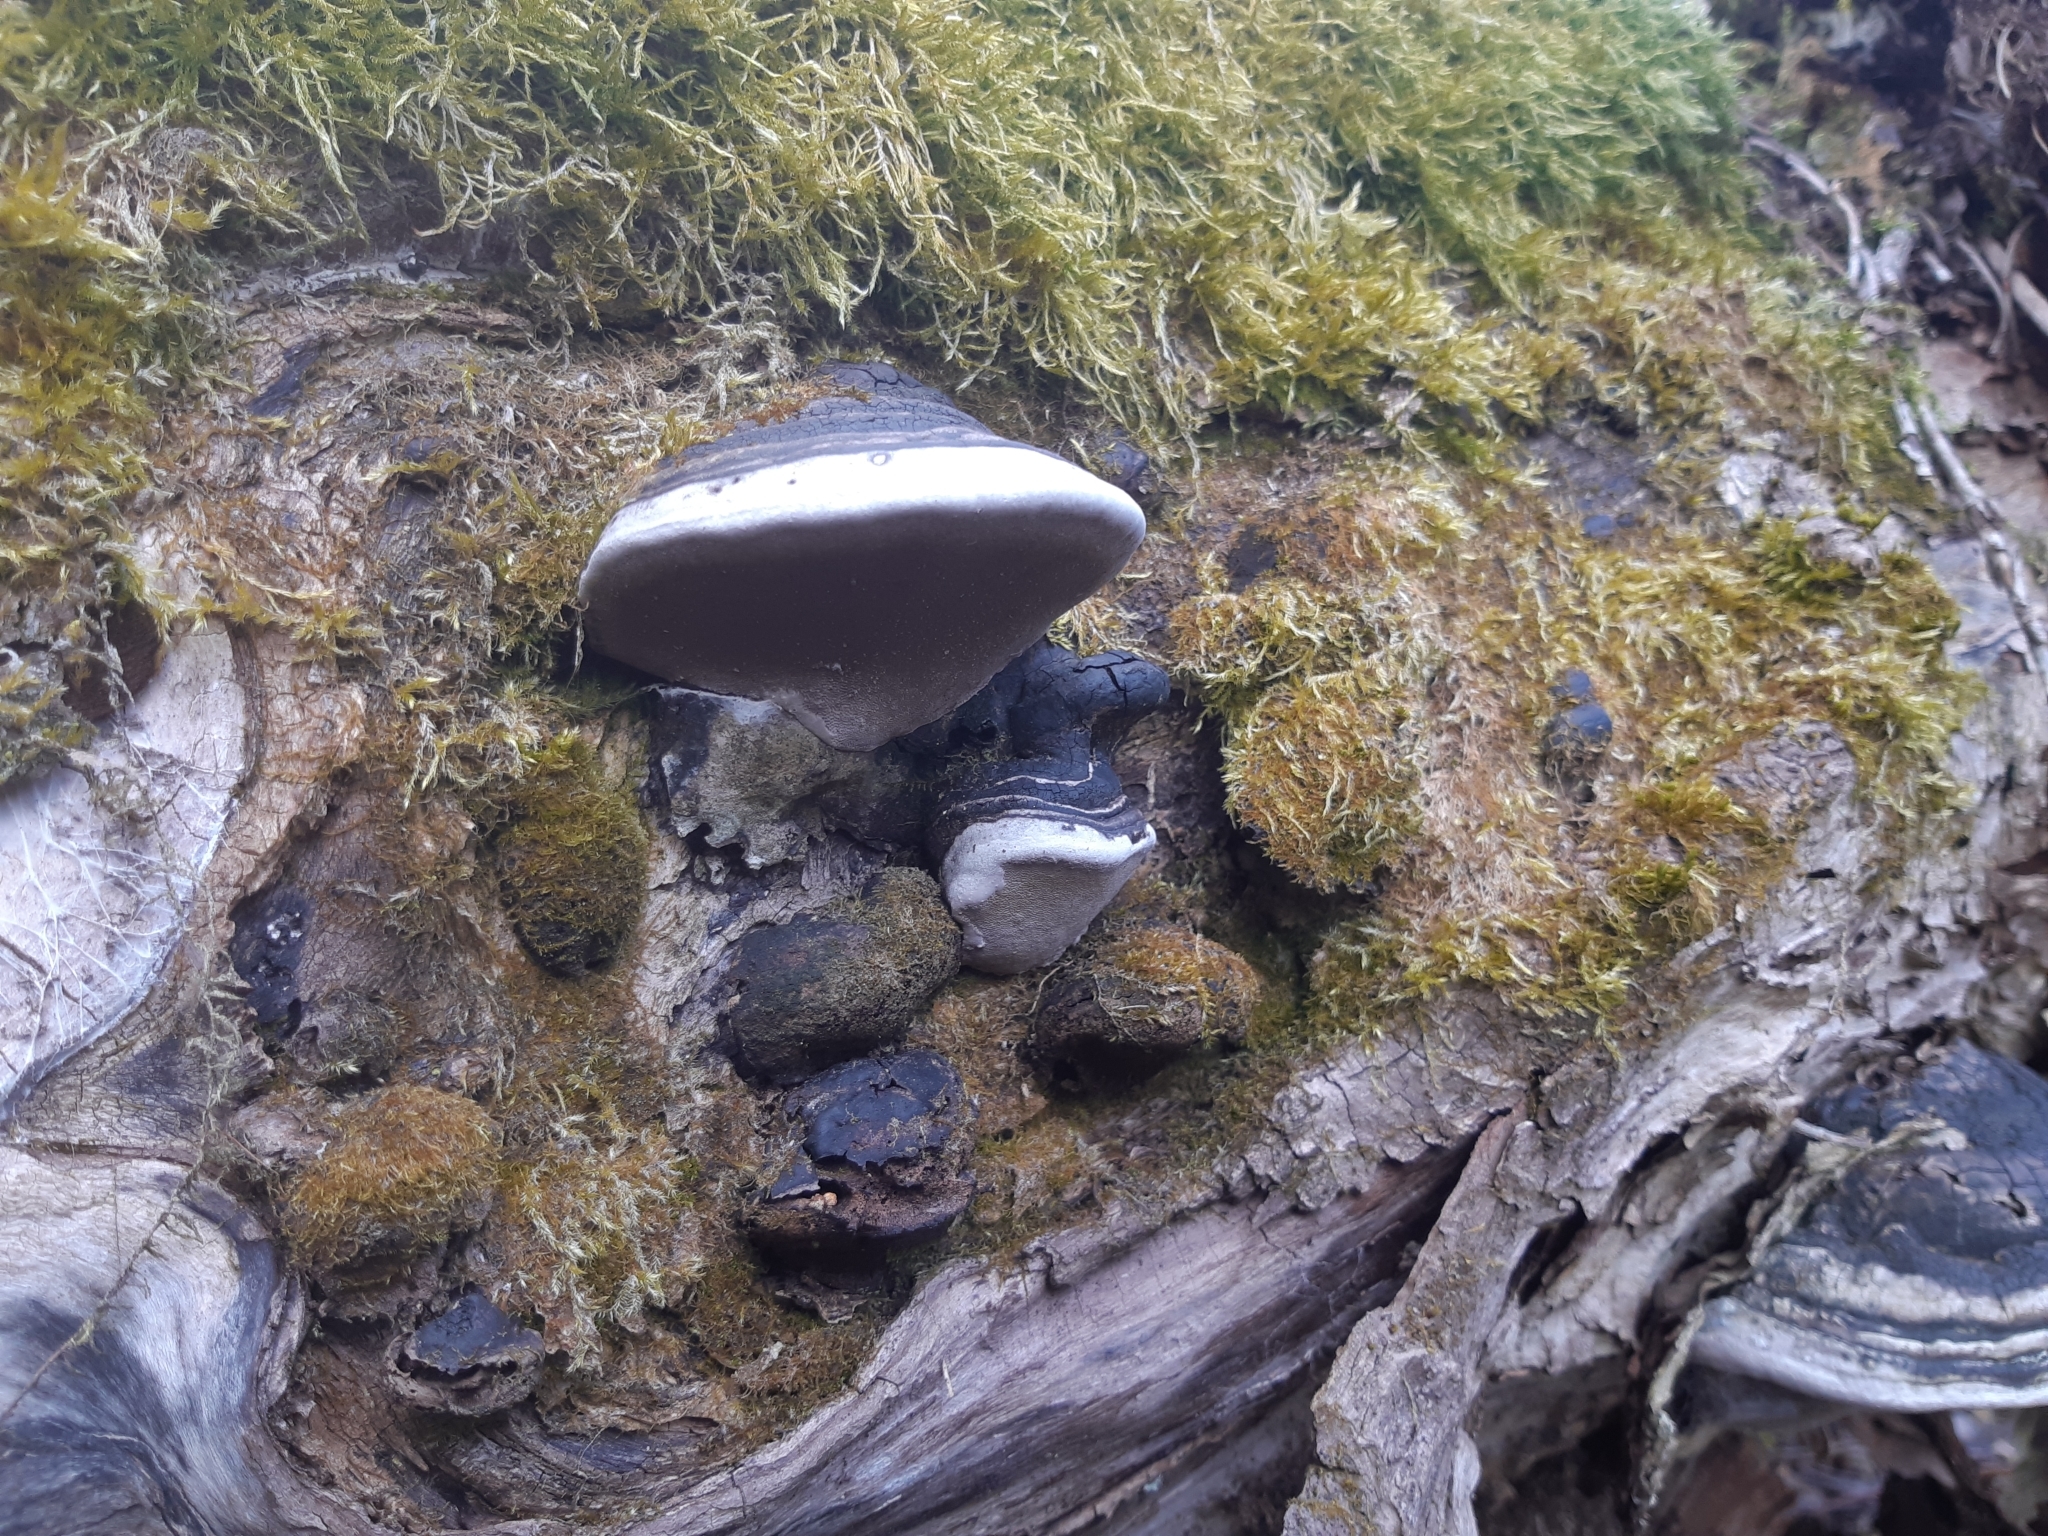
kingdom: Fungi
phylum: Basidiomycota
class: Agaricomycetes
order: Hymenochaetales
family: Hymenochaetaceae
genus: Phellinus
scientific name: Phellinus igniarius
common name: Willow bracket
